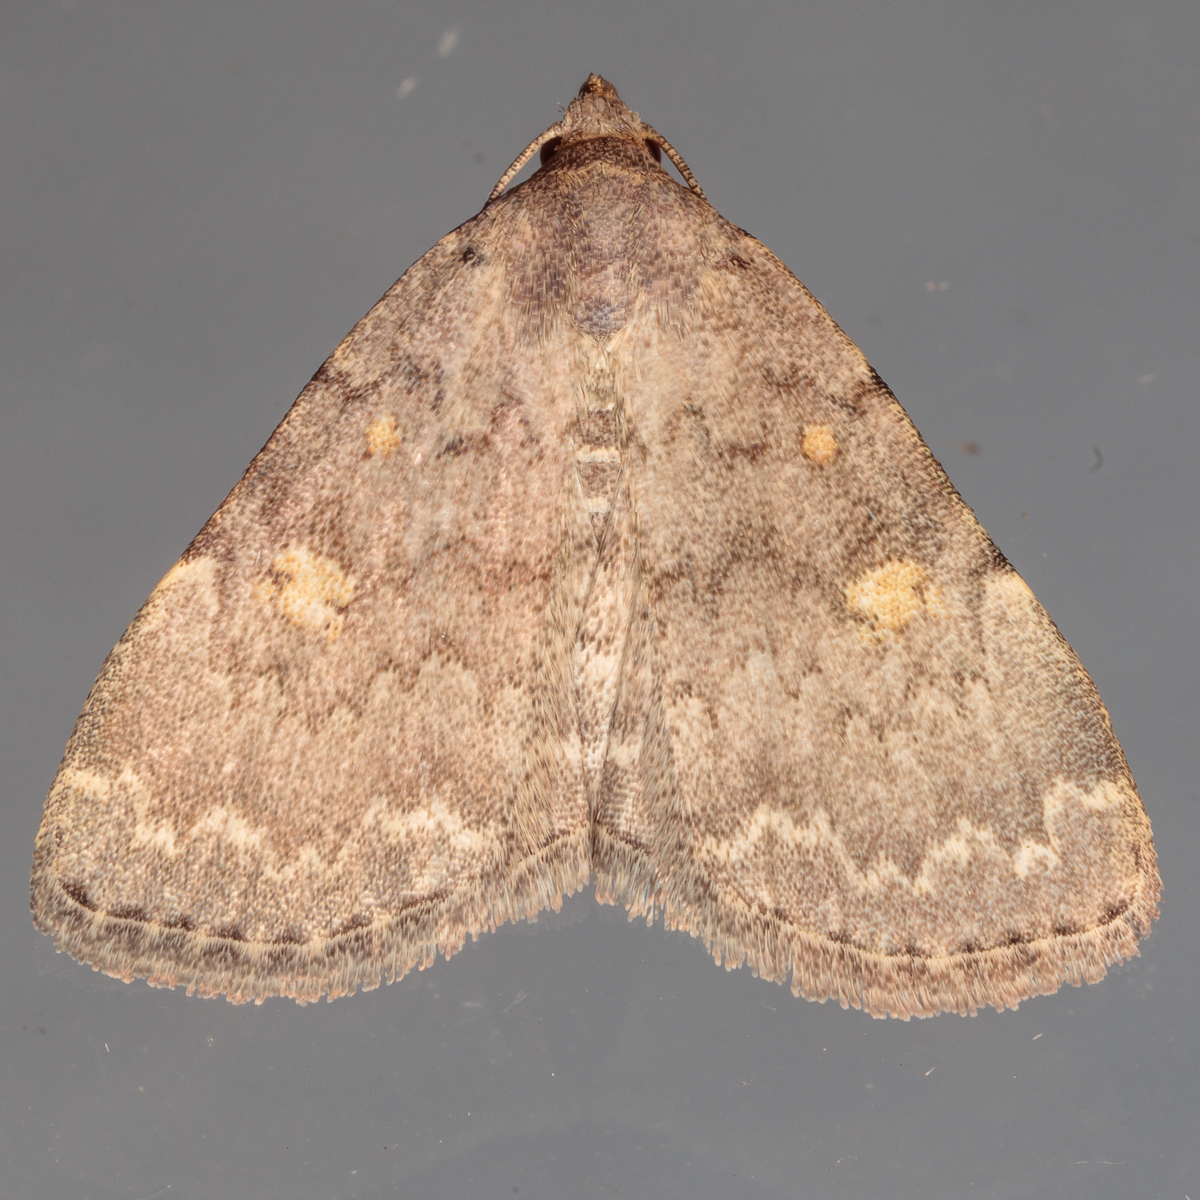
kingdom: Animalia
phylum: Arthropoda
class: Insecta
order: Lepidoptera
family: Erebidae
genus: Idia
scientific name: Idia aemula
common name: Common idia moth
